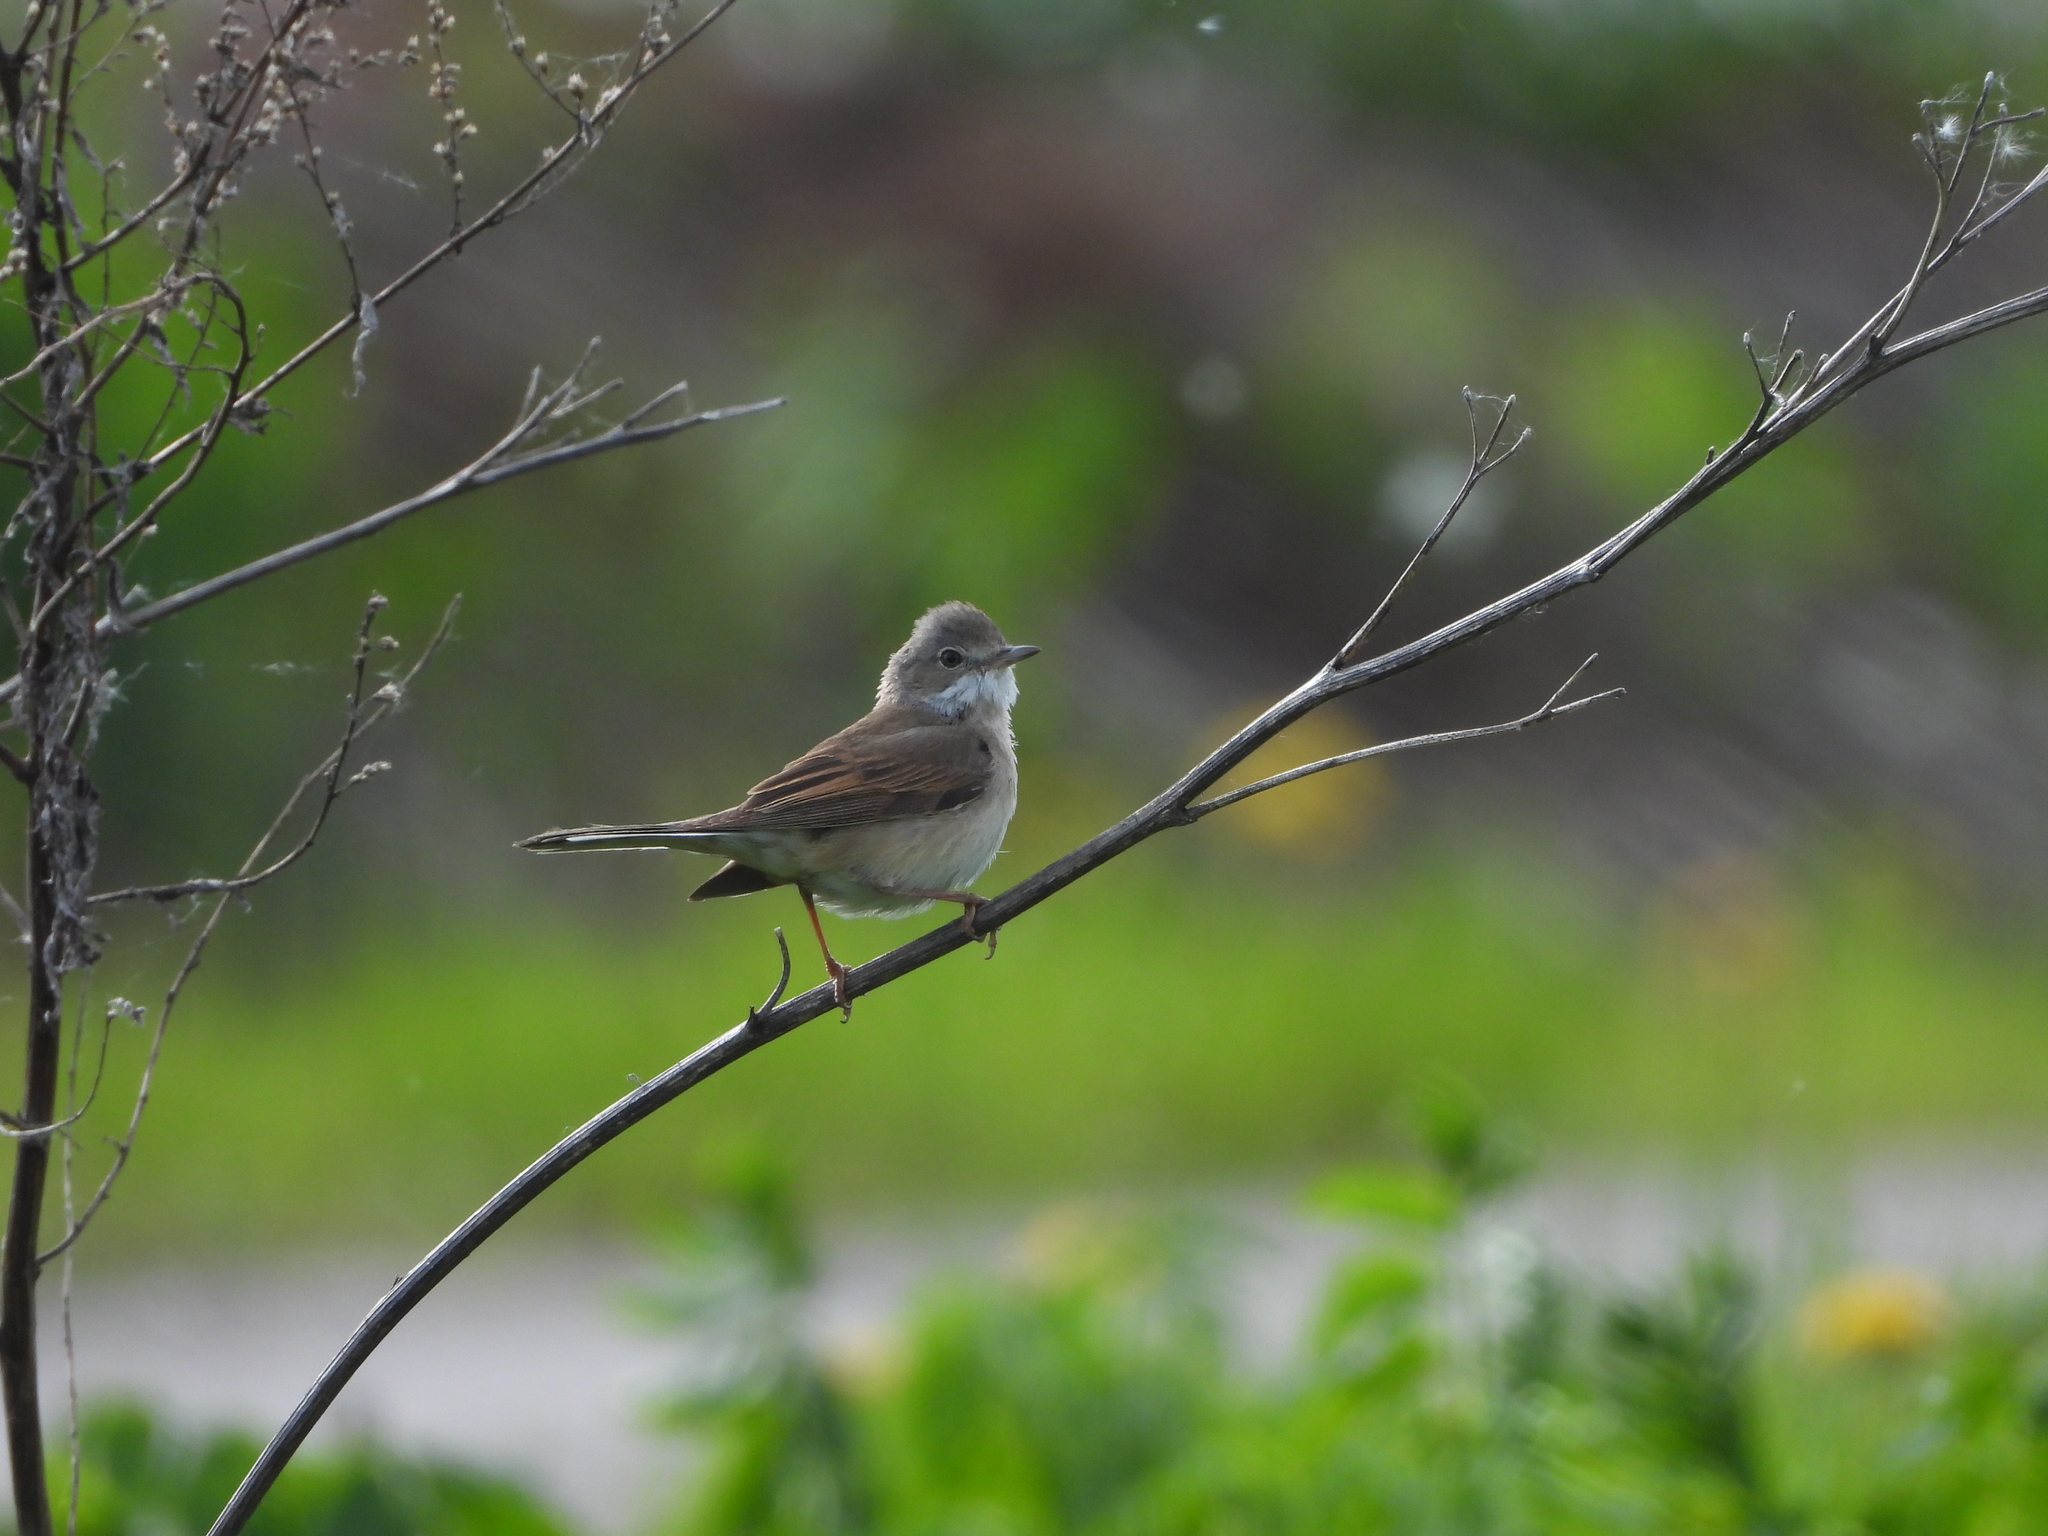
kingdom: Animalia
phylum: Chordata
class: Aves
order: Passeriformes
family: Sylviidae
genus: Sylvia
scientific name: Sylvia communis
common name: Common whitethroat
